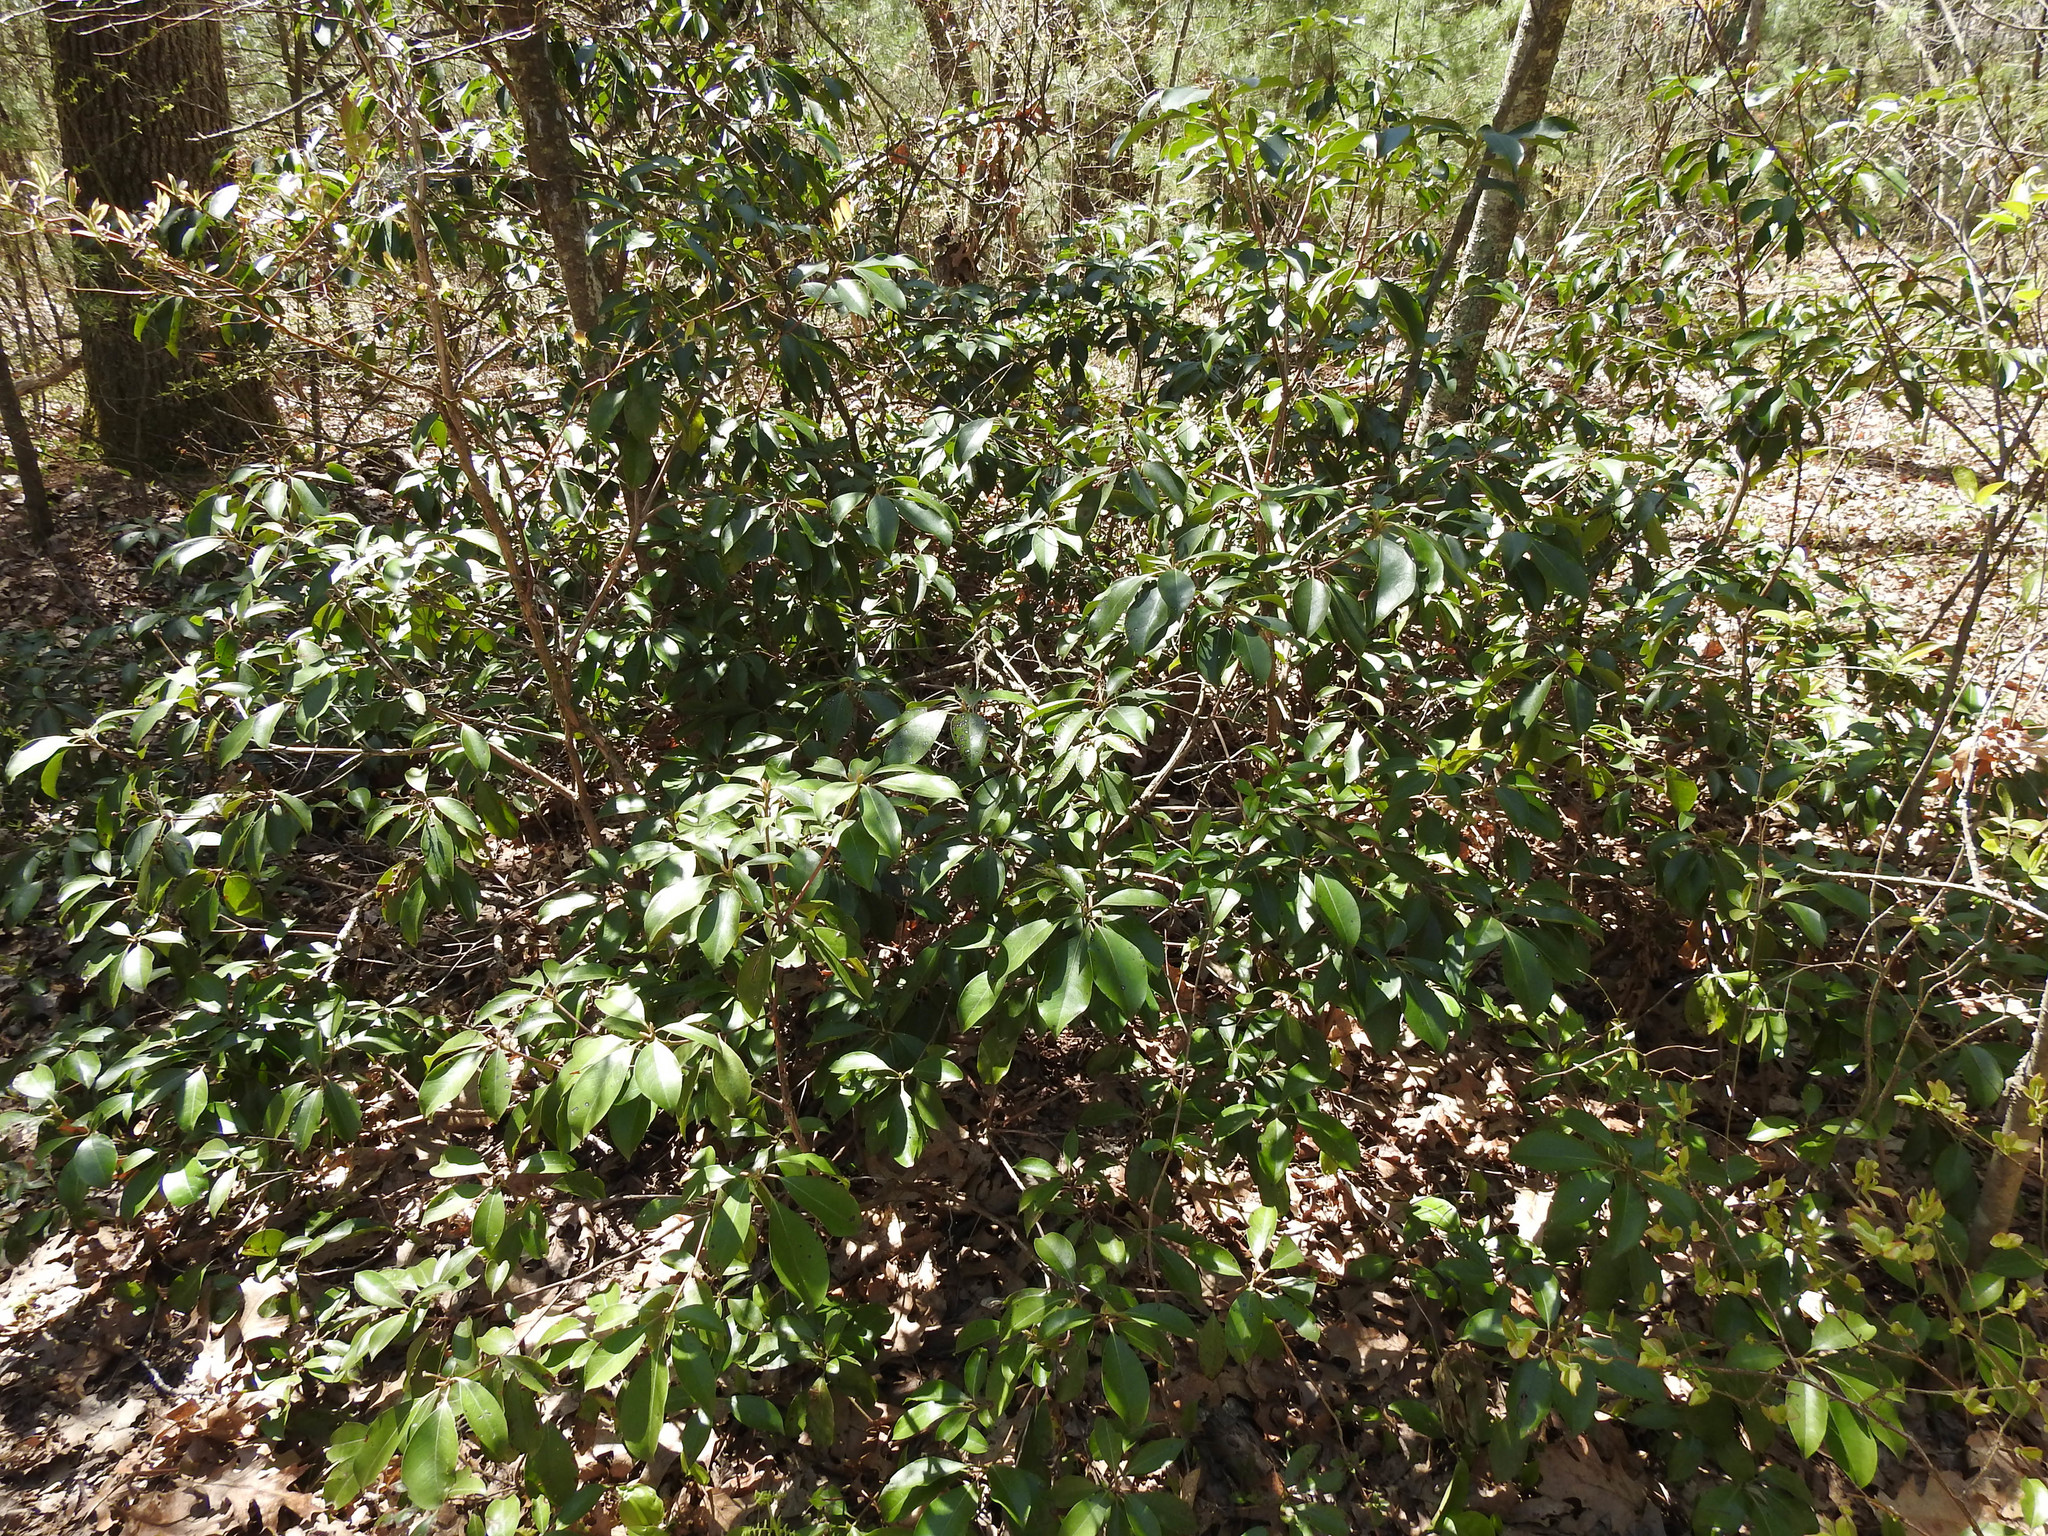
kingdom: Plantae
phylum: Tracheophyta
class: Magnoliopsida
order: Ericales
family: Ericaceae
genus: Kalmia
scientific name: Kalmia latifolia
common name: Mountain-laurel
